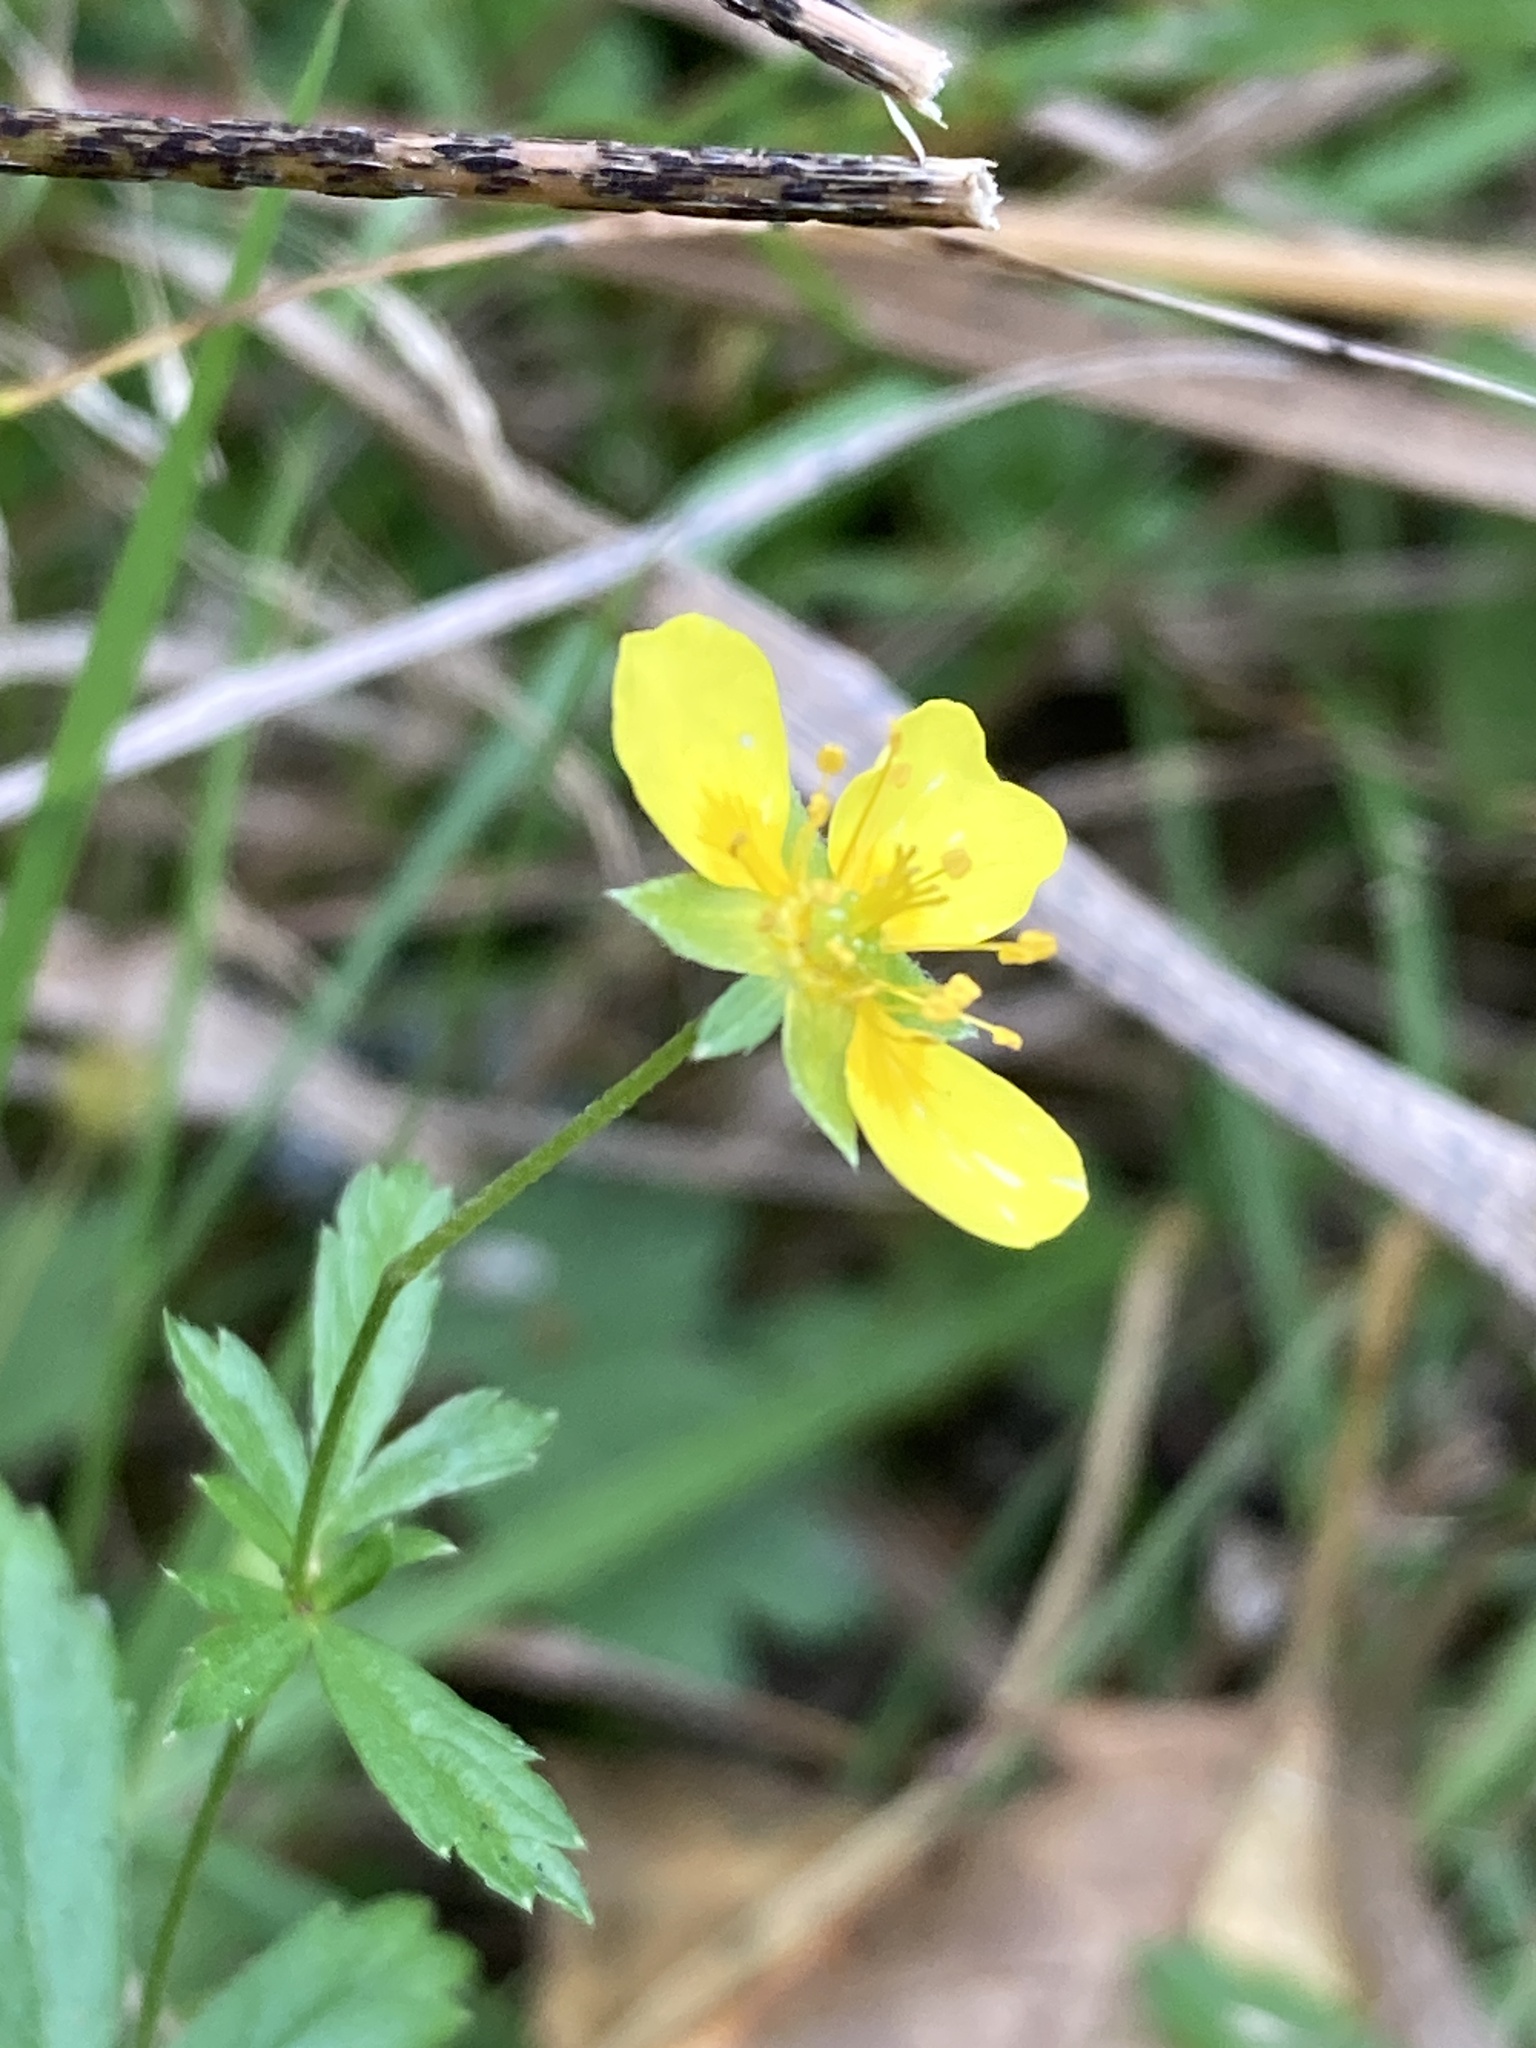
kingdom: Plantae
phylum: Tracheophyta
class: Magnoliopsida
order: Rosales
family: Rosaceae
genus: Potentilla
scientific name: Potentilla erecta
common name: Tormentil
